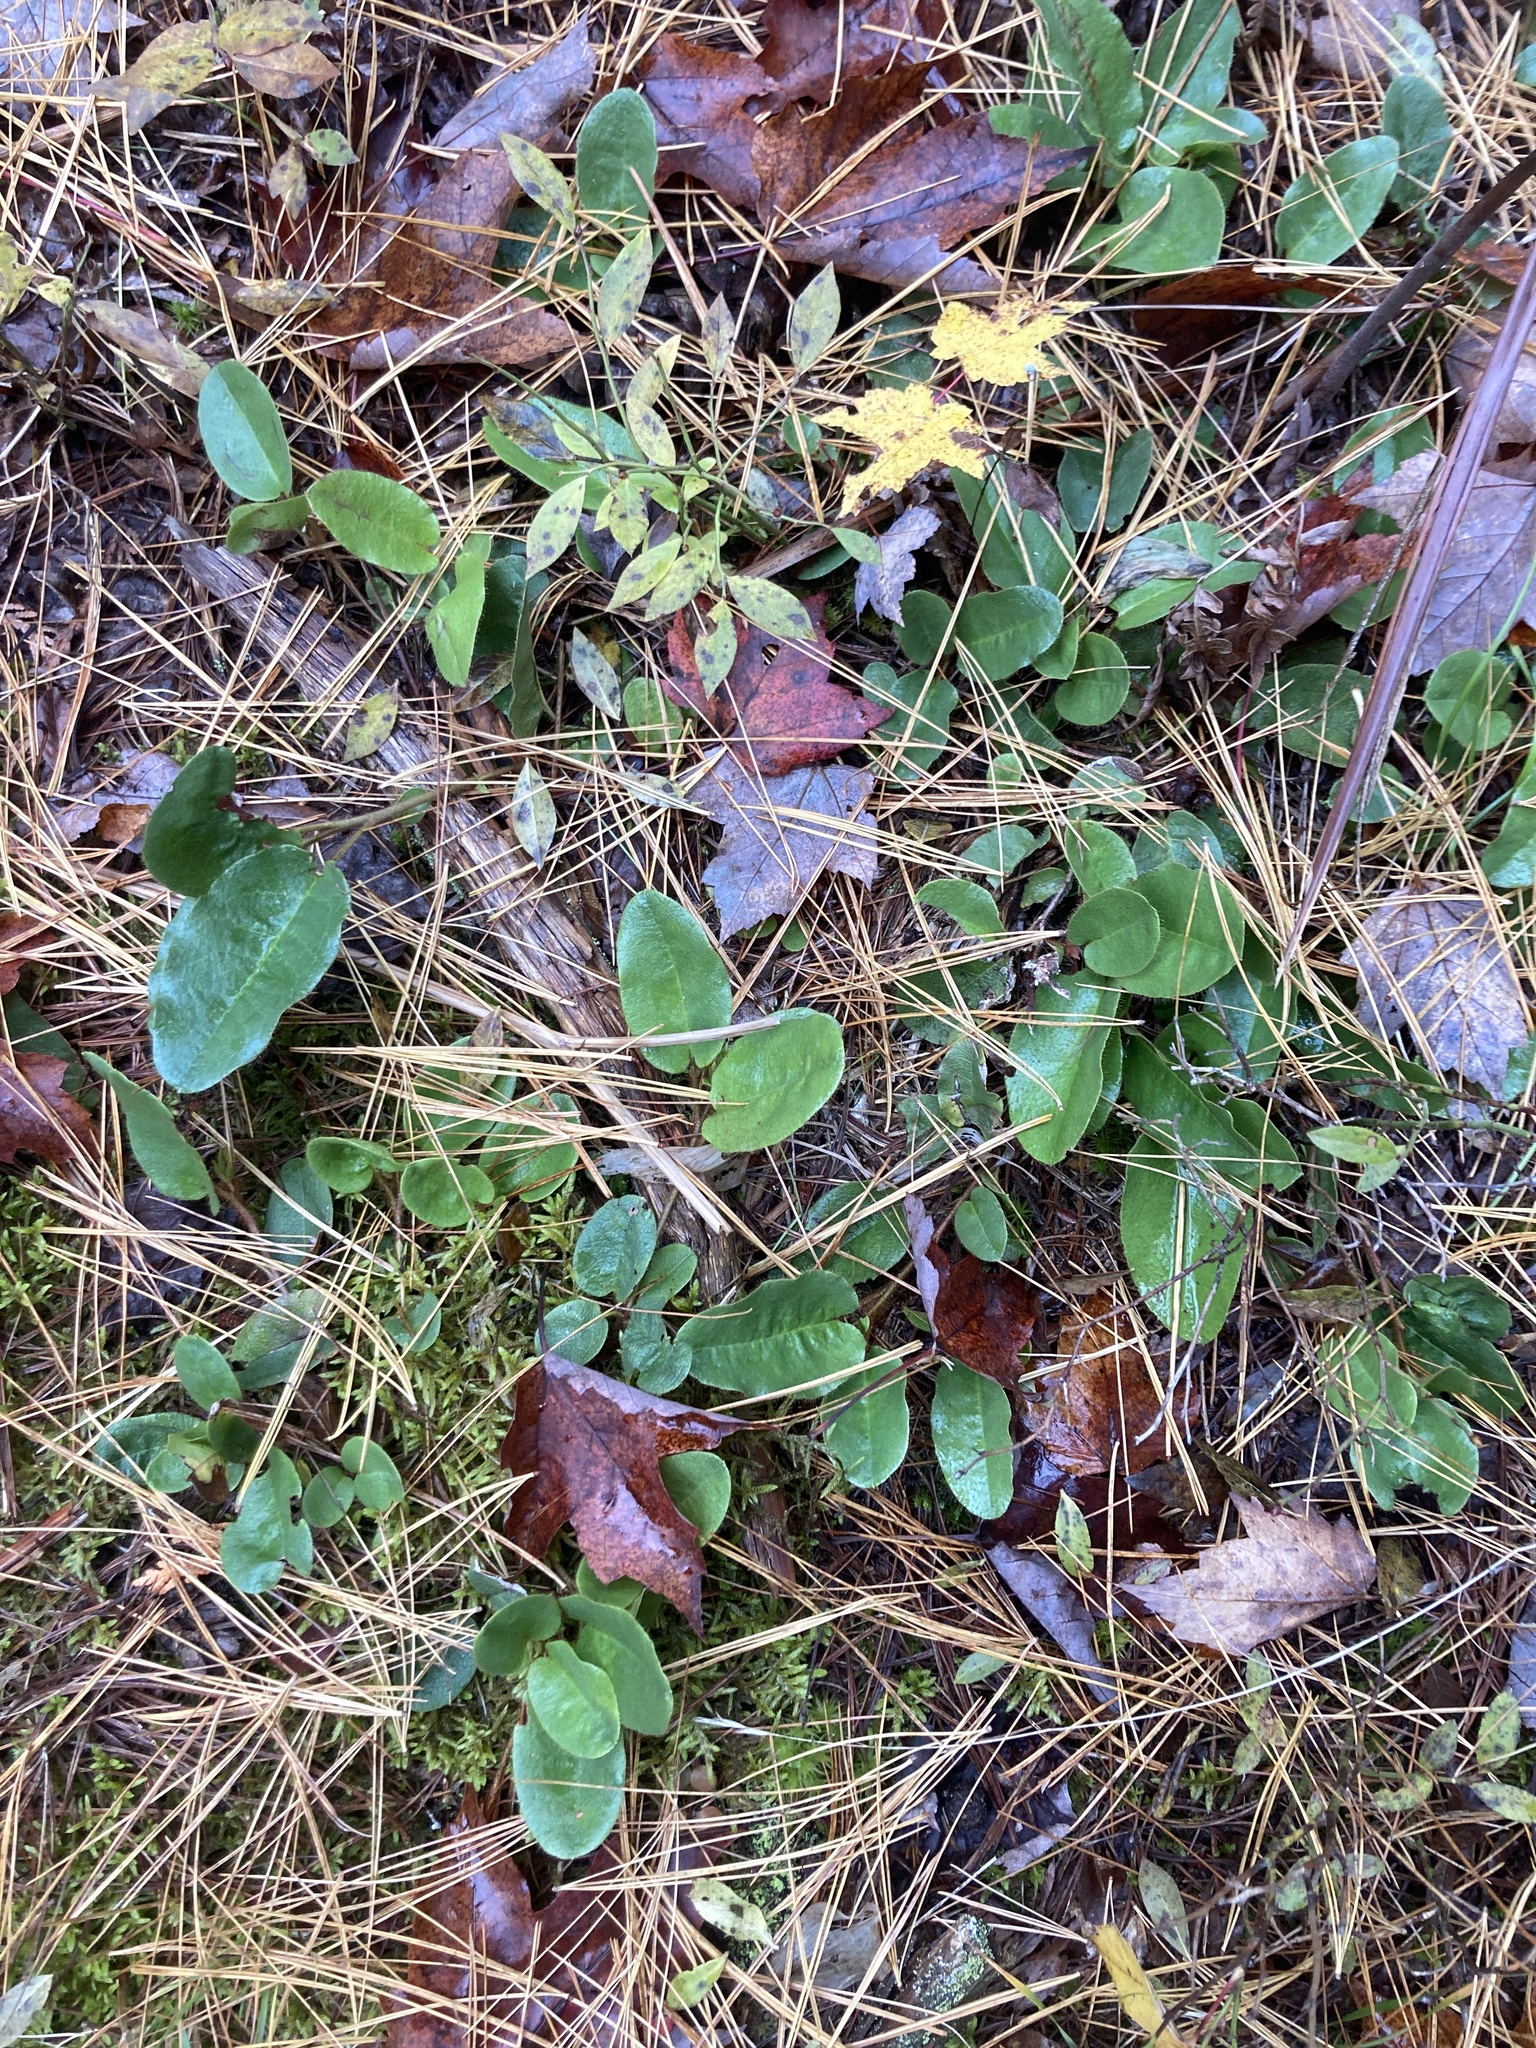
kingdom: Plantae
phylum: Tracheophyta
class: Magnoliopsida
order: Ericales
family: Ericaceae
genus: Epigaea
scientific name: Epigaea repens
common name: Gravelroot
